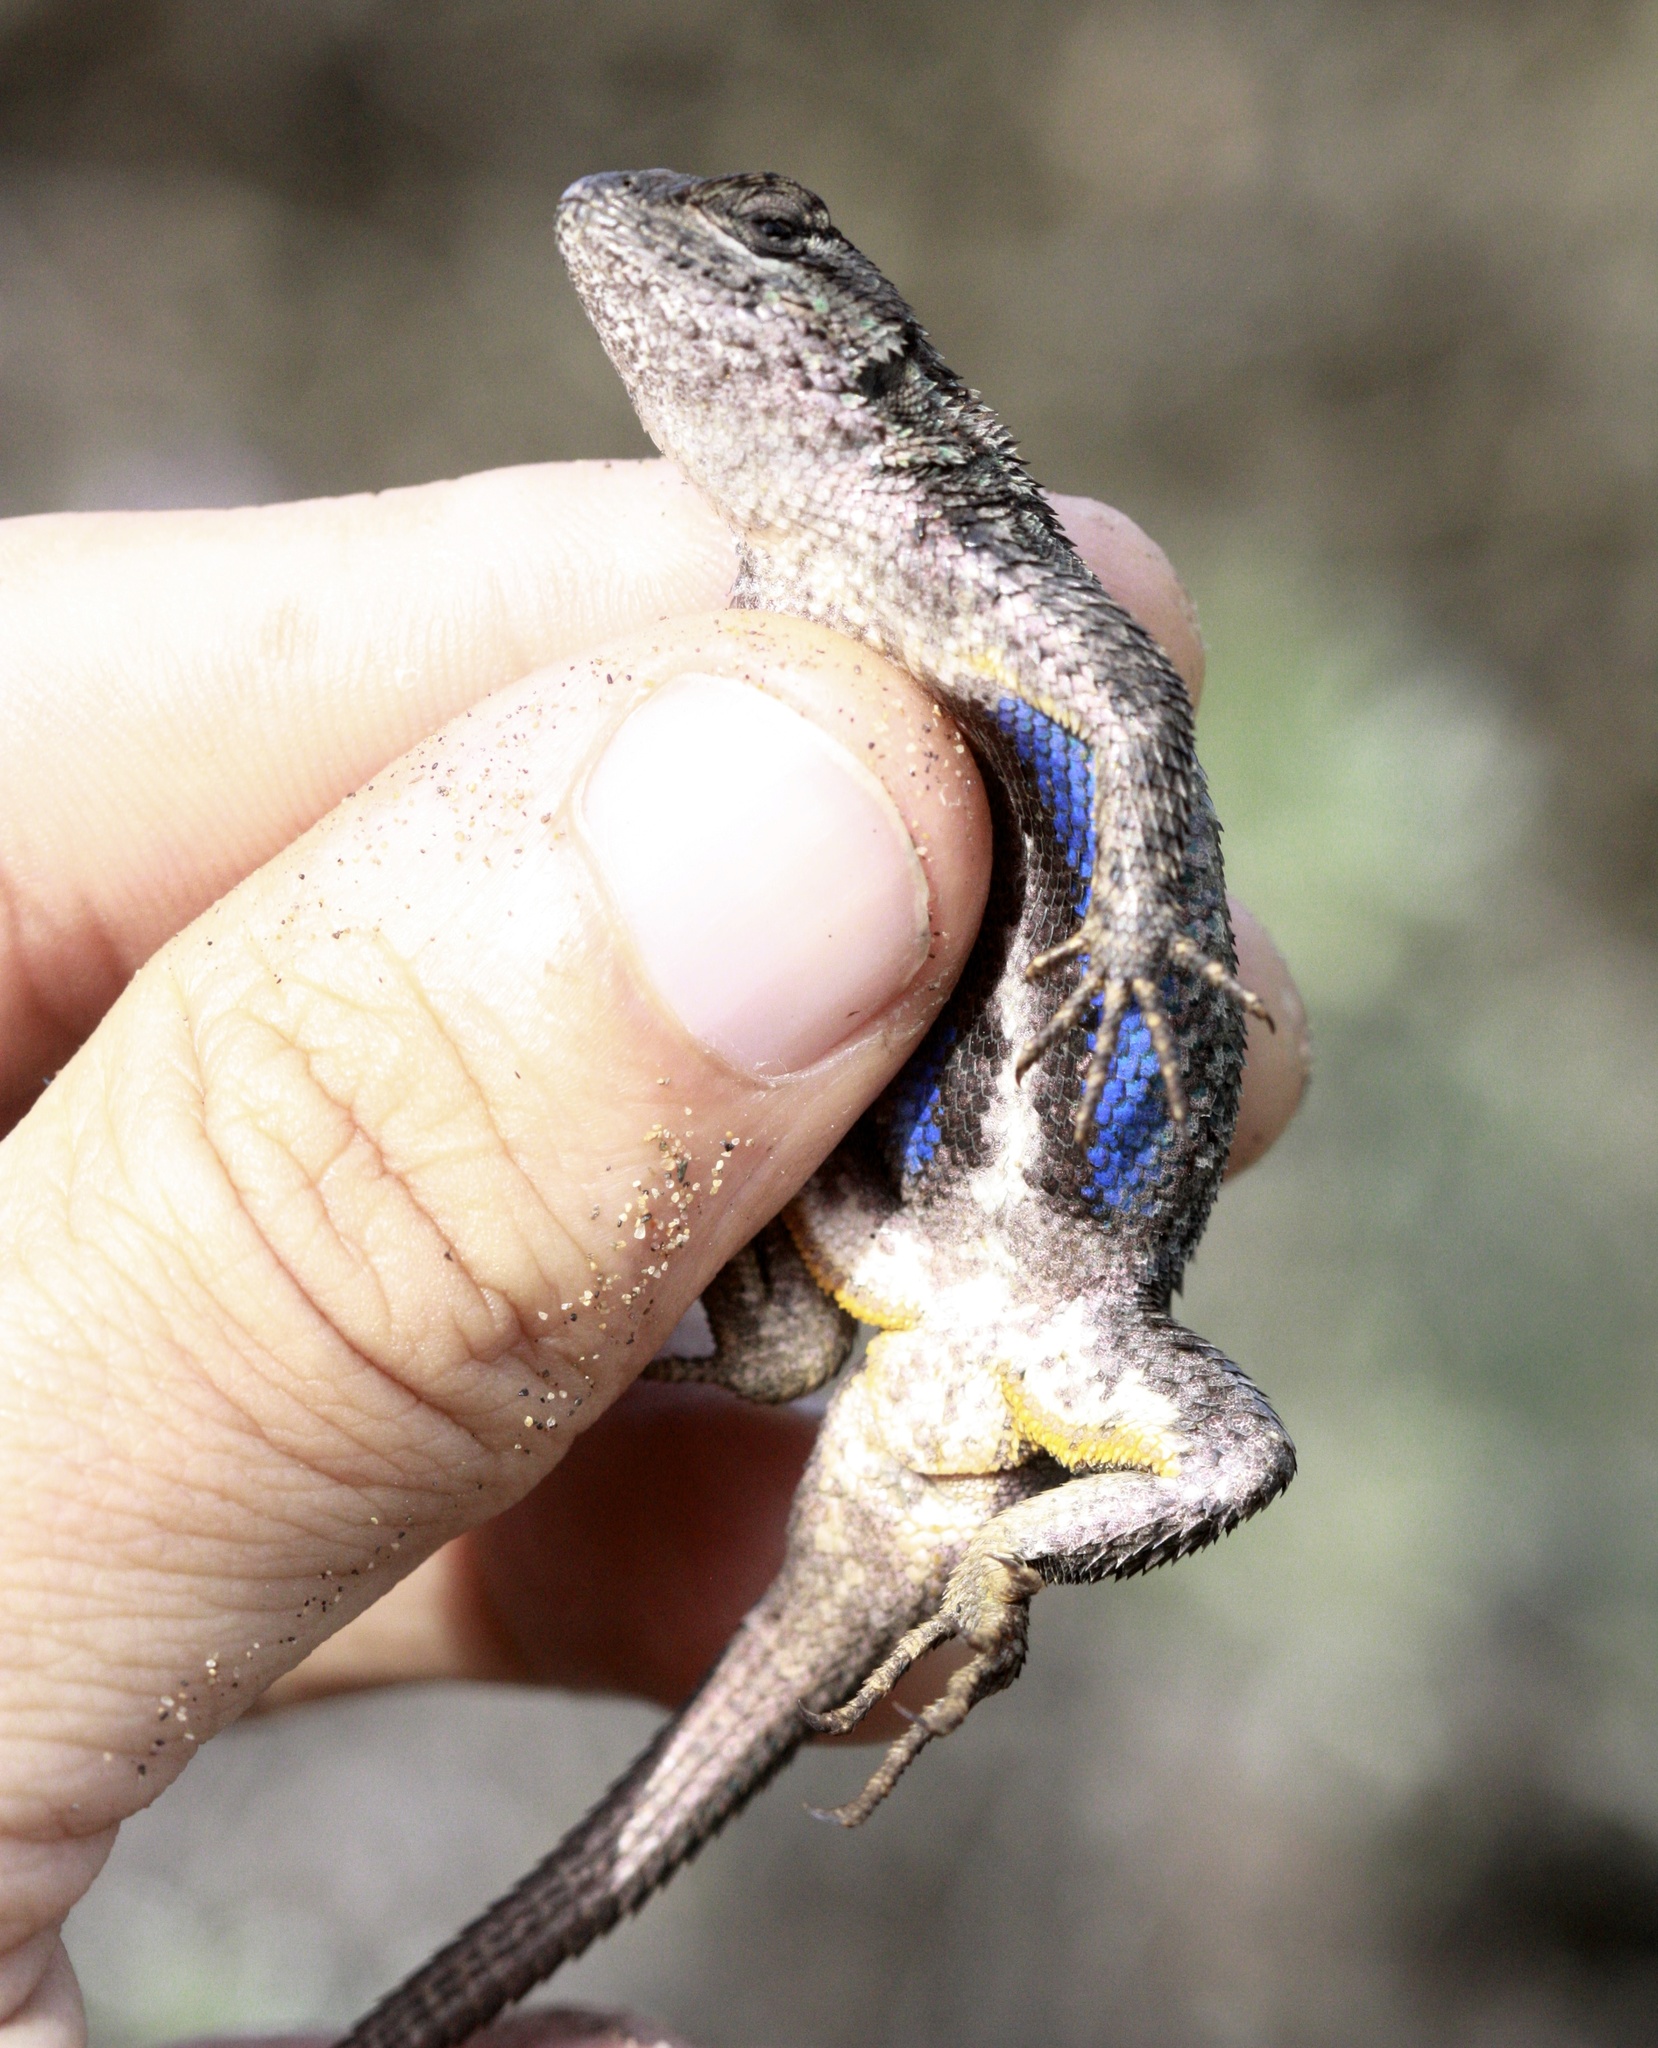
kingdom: Animalia
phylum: Chordata
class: Squamata
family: Phrynosomatidae
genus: Sceloporus
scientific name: Sceloporus occidentalis
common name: Western fence lizard
